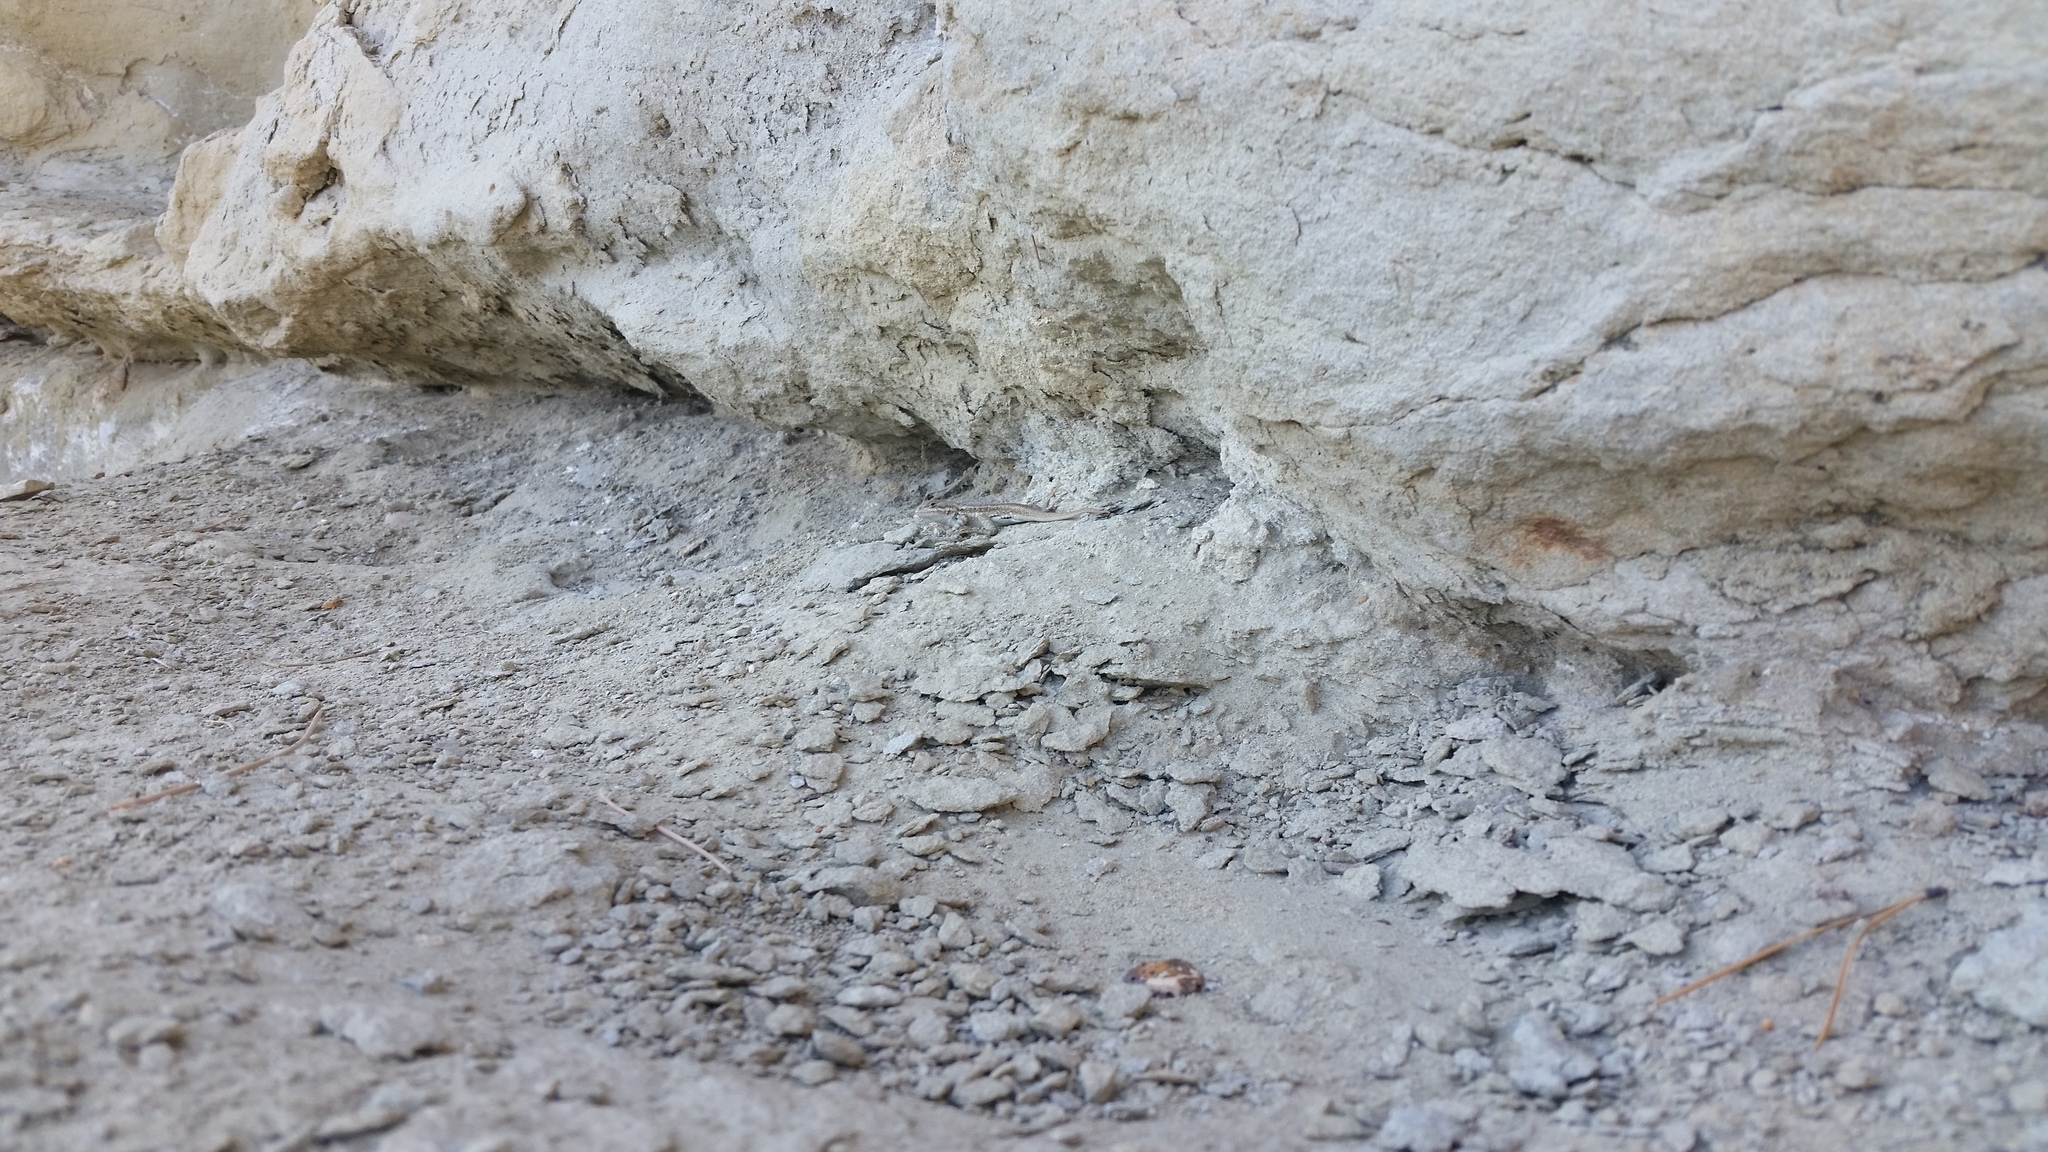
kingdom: Animalia
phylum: Chordata
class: Squamata
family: Phrynosomatidae
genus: Sceloporus
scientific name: Sceloporus graciosus
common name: Sagebrush lizard
